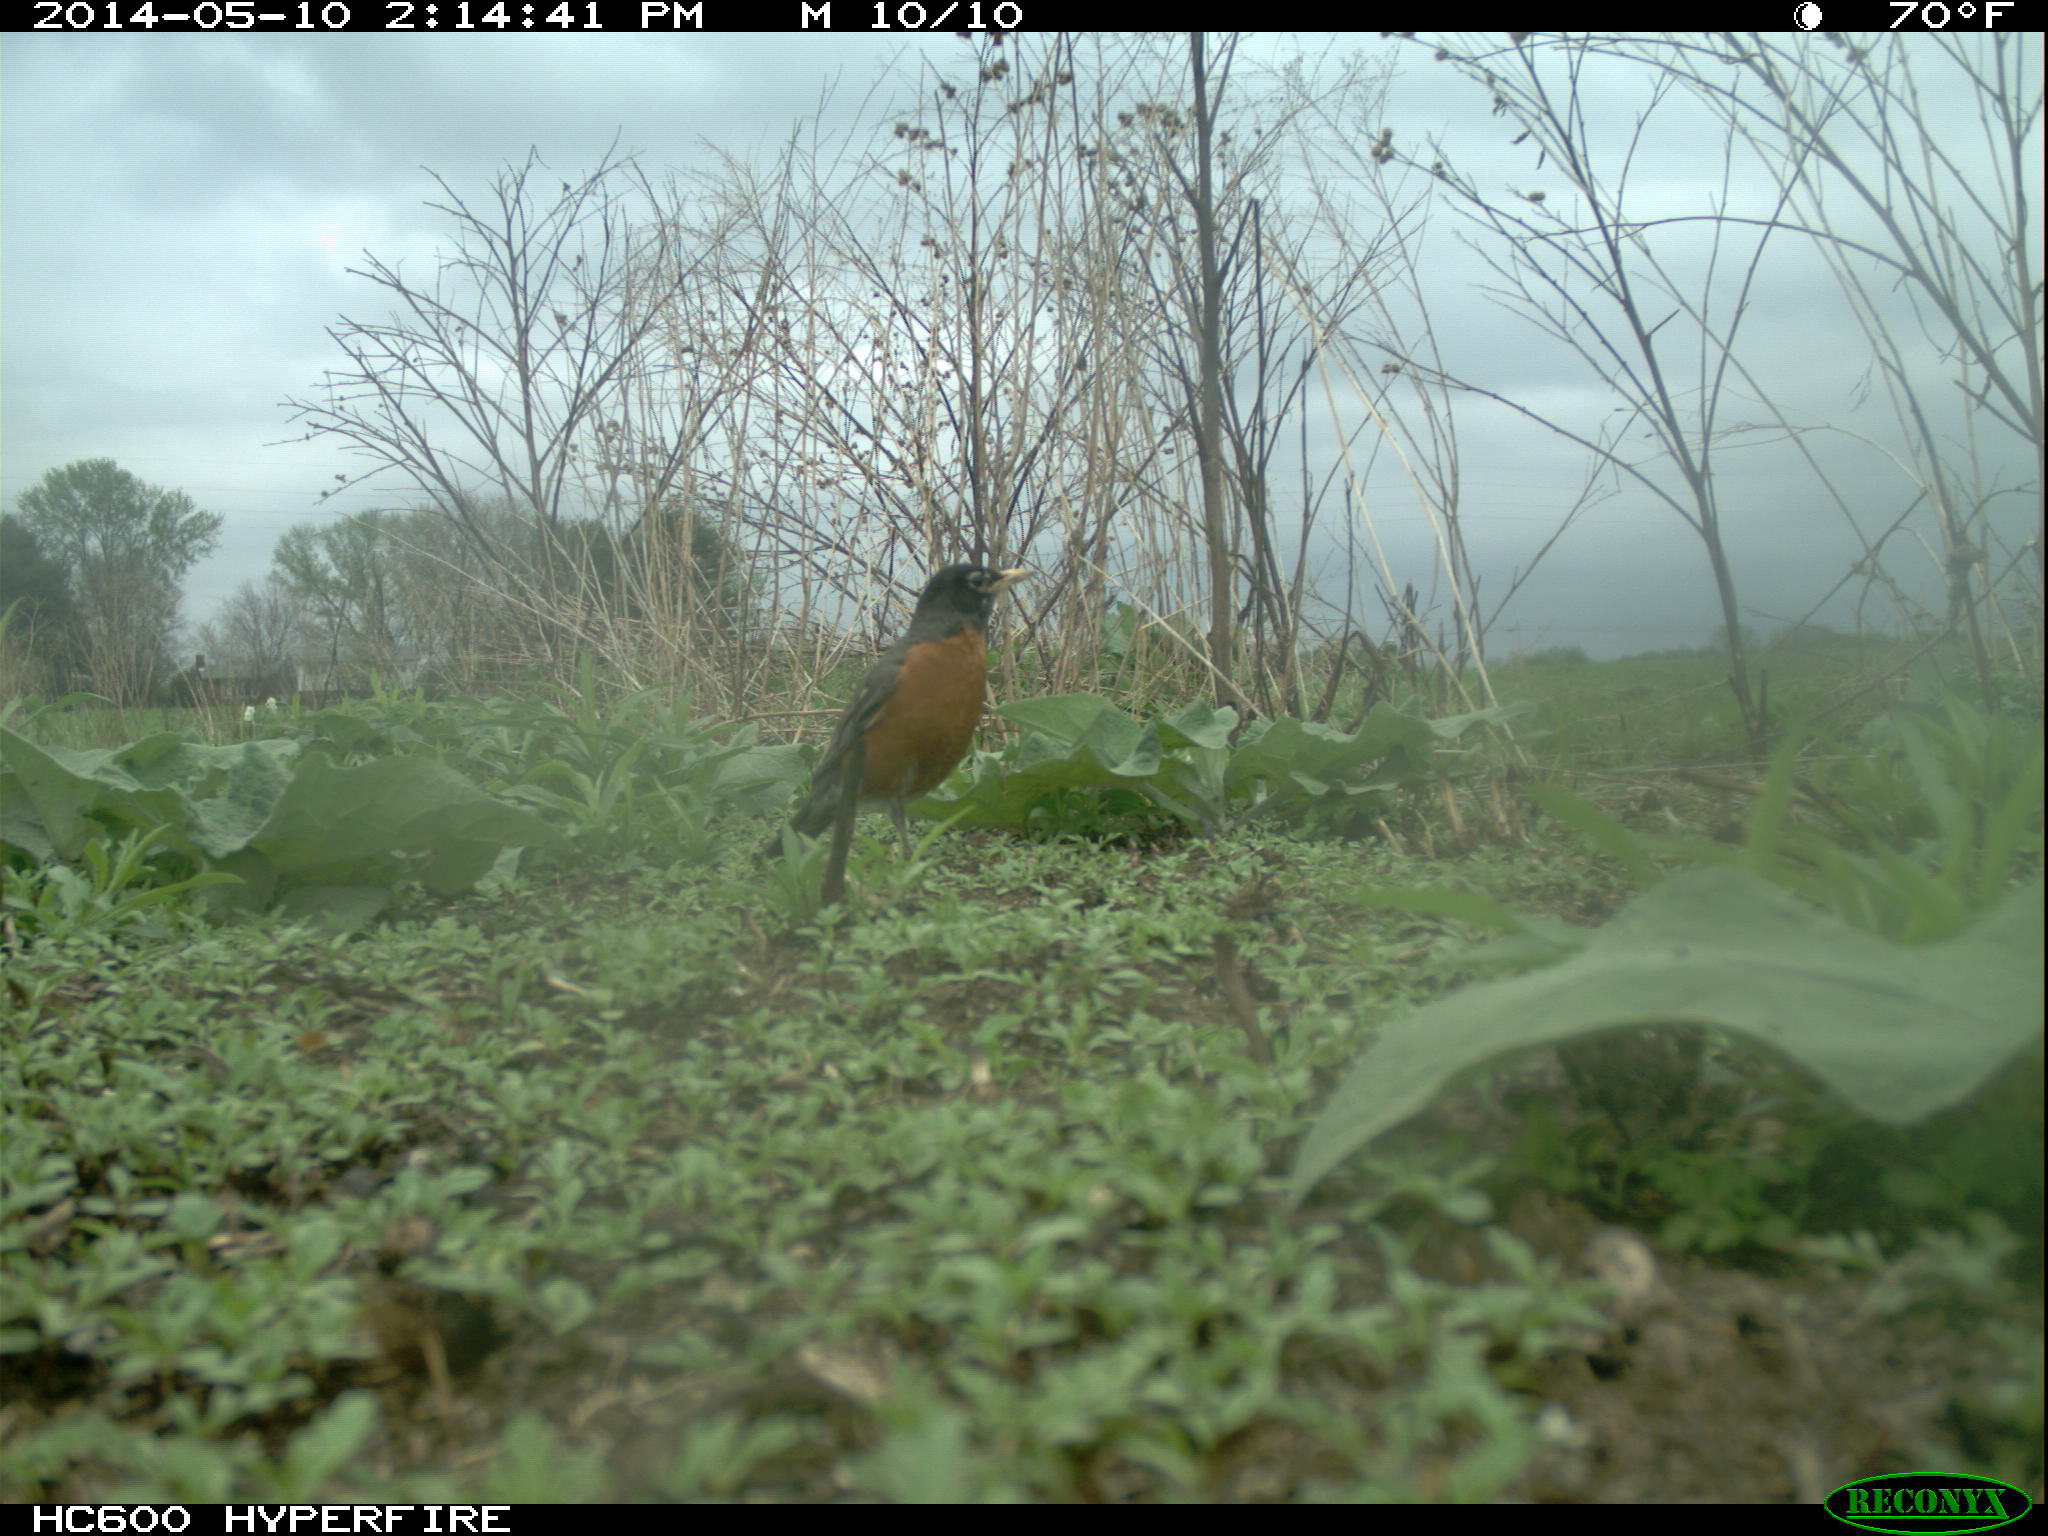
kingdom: Animalia
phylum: Chordata
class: Aves
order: Passeriformes
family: Turdidae
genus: Turdus
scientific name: Turdus migratorius
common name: American robin
